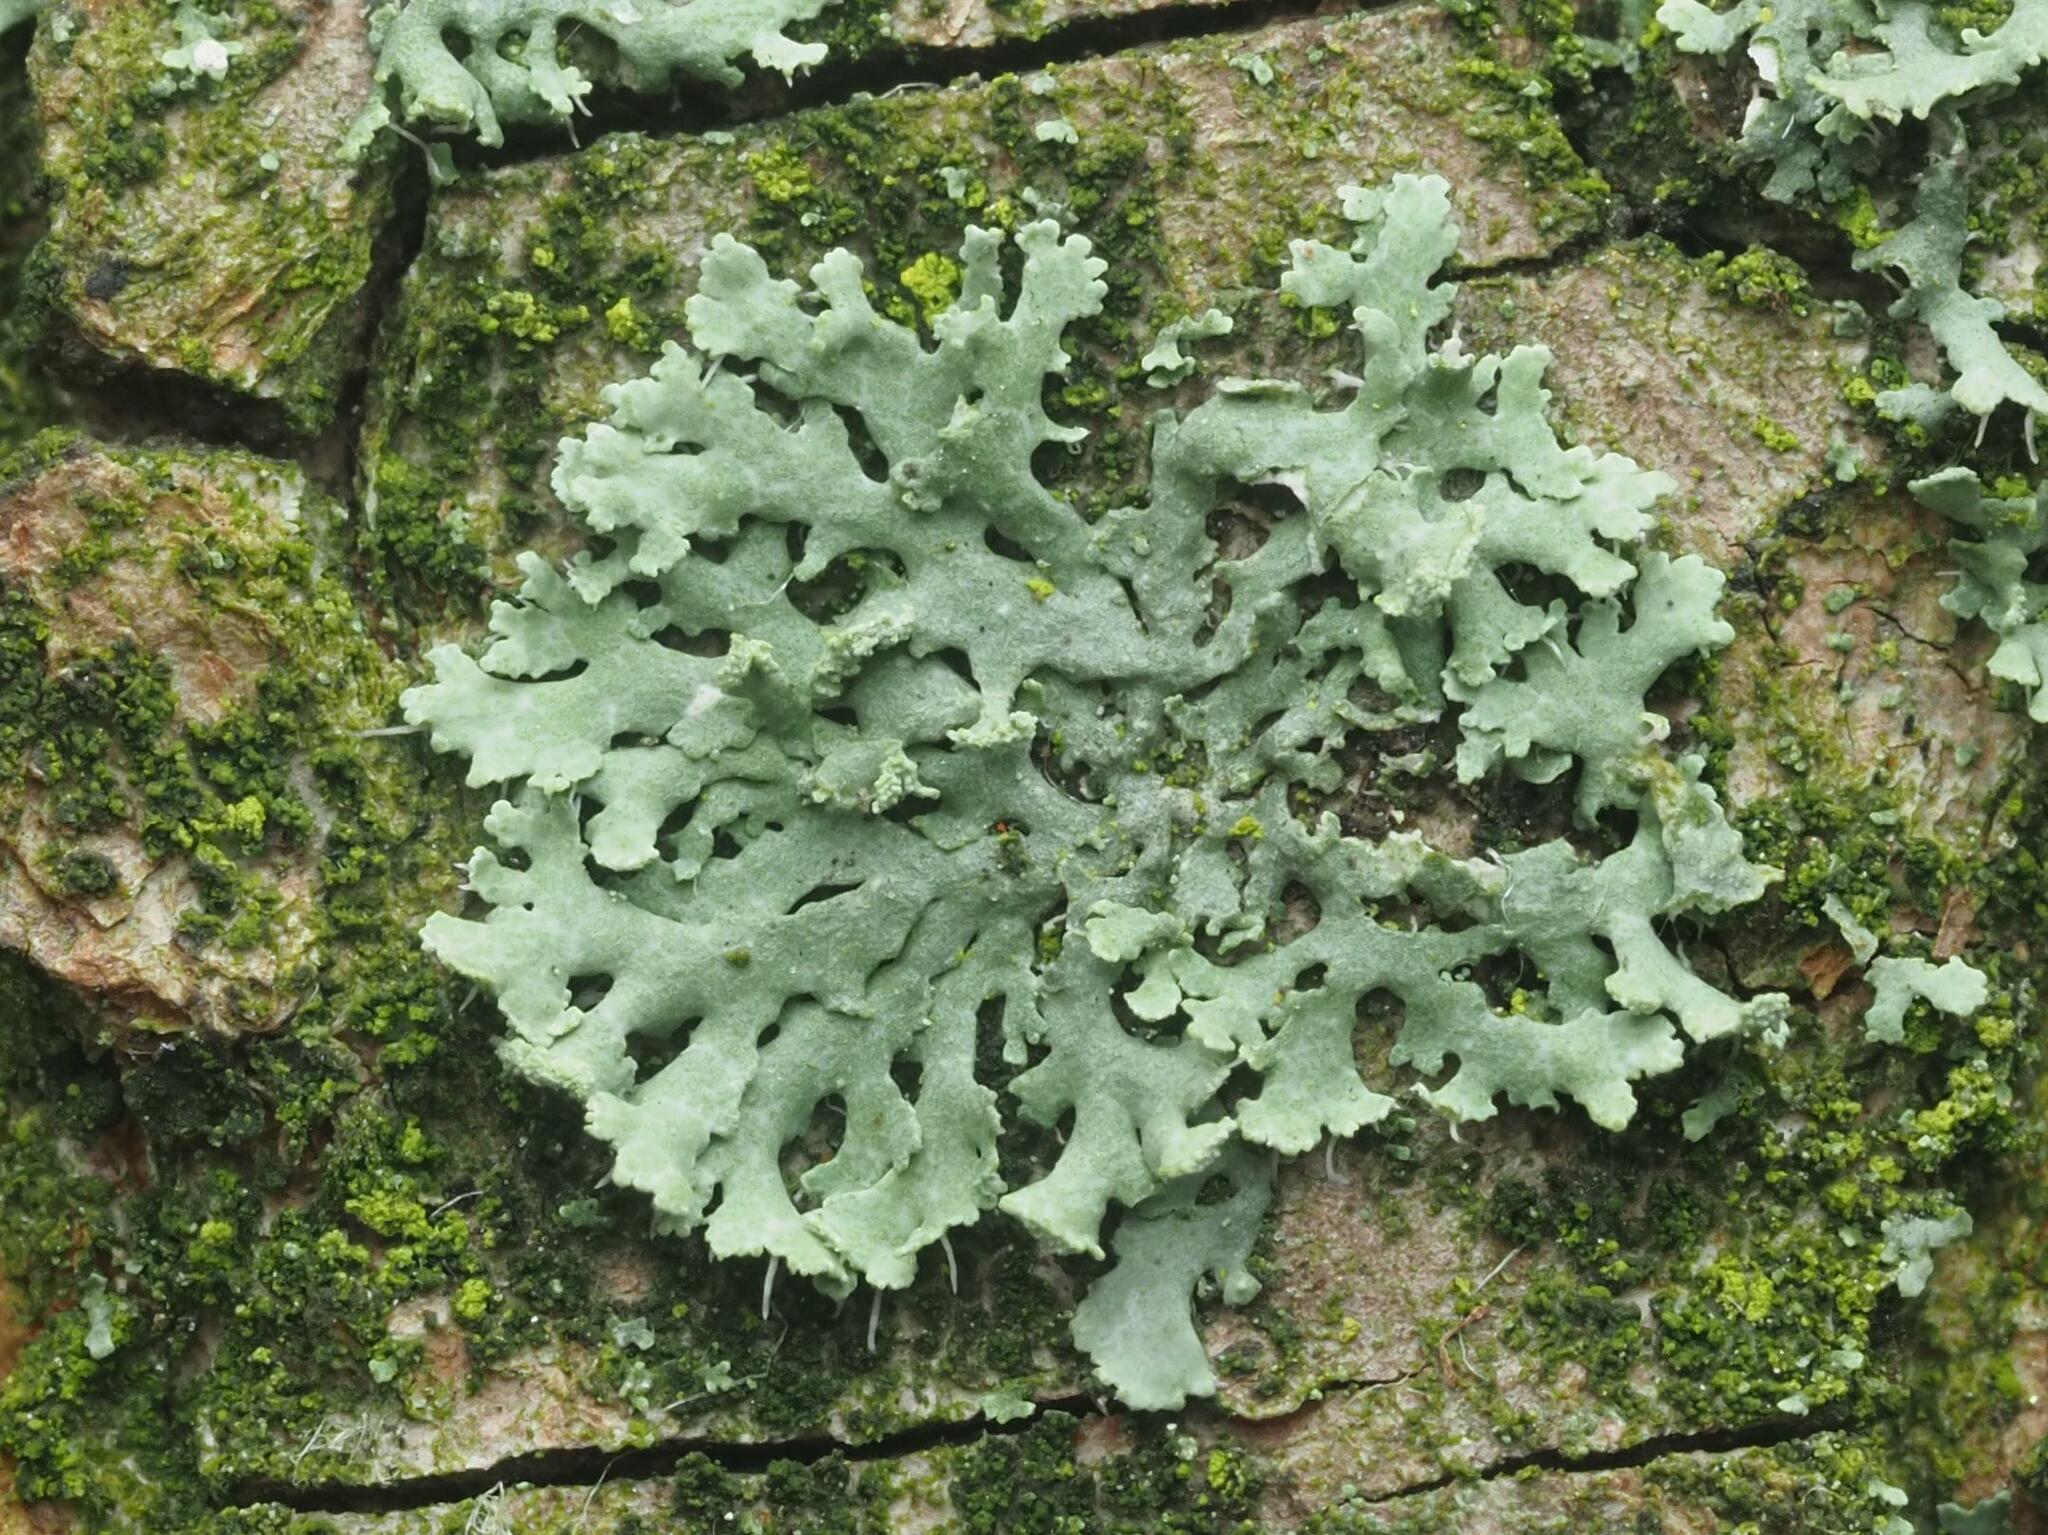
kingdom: Fungi
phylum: Ascomycota
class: Lecanoromycetes
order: Caliciales
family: Physciaceae
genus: Physcia
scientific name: Physcia dubia
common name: Powder-tipped rosette lichen
